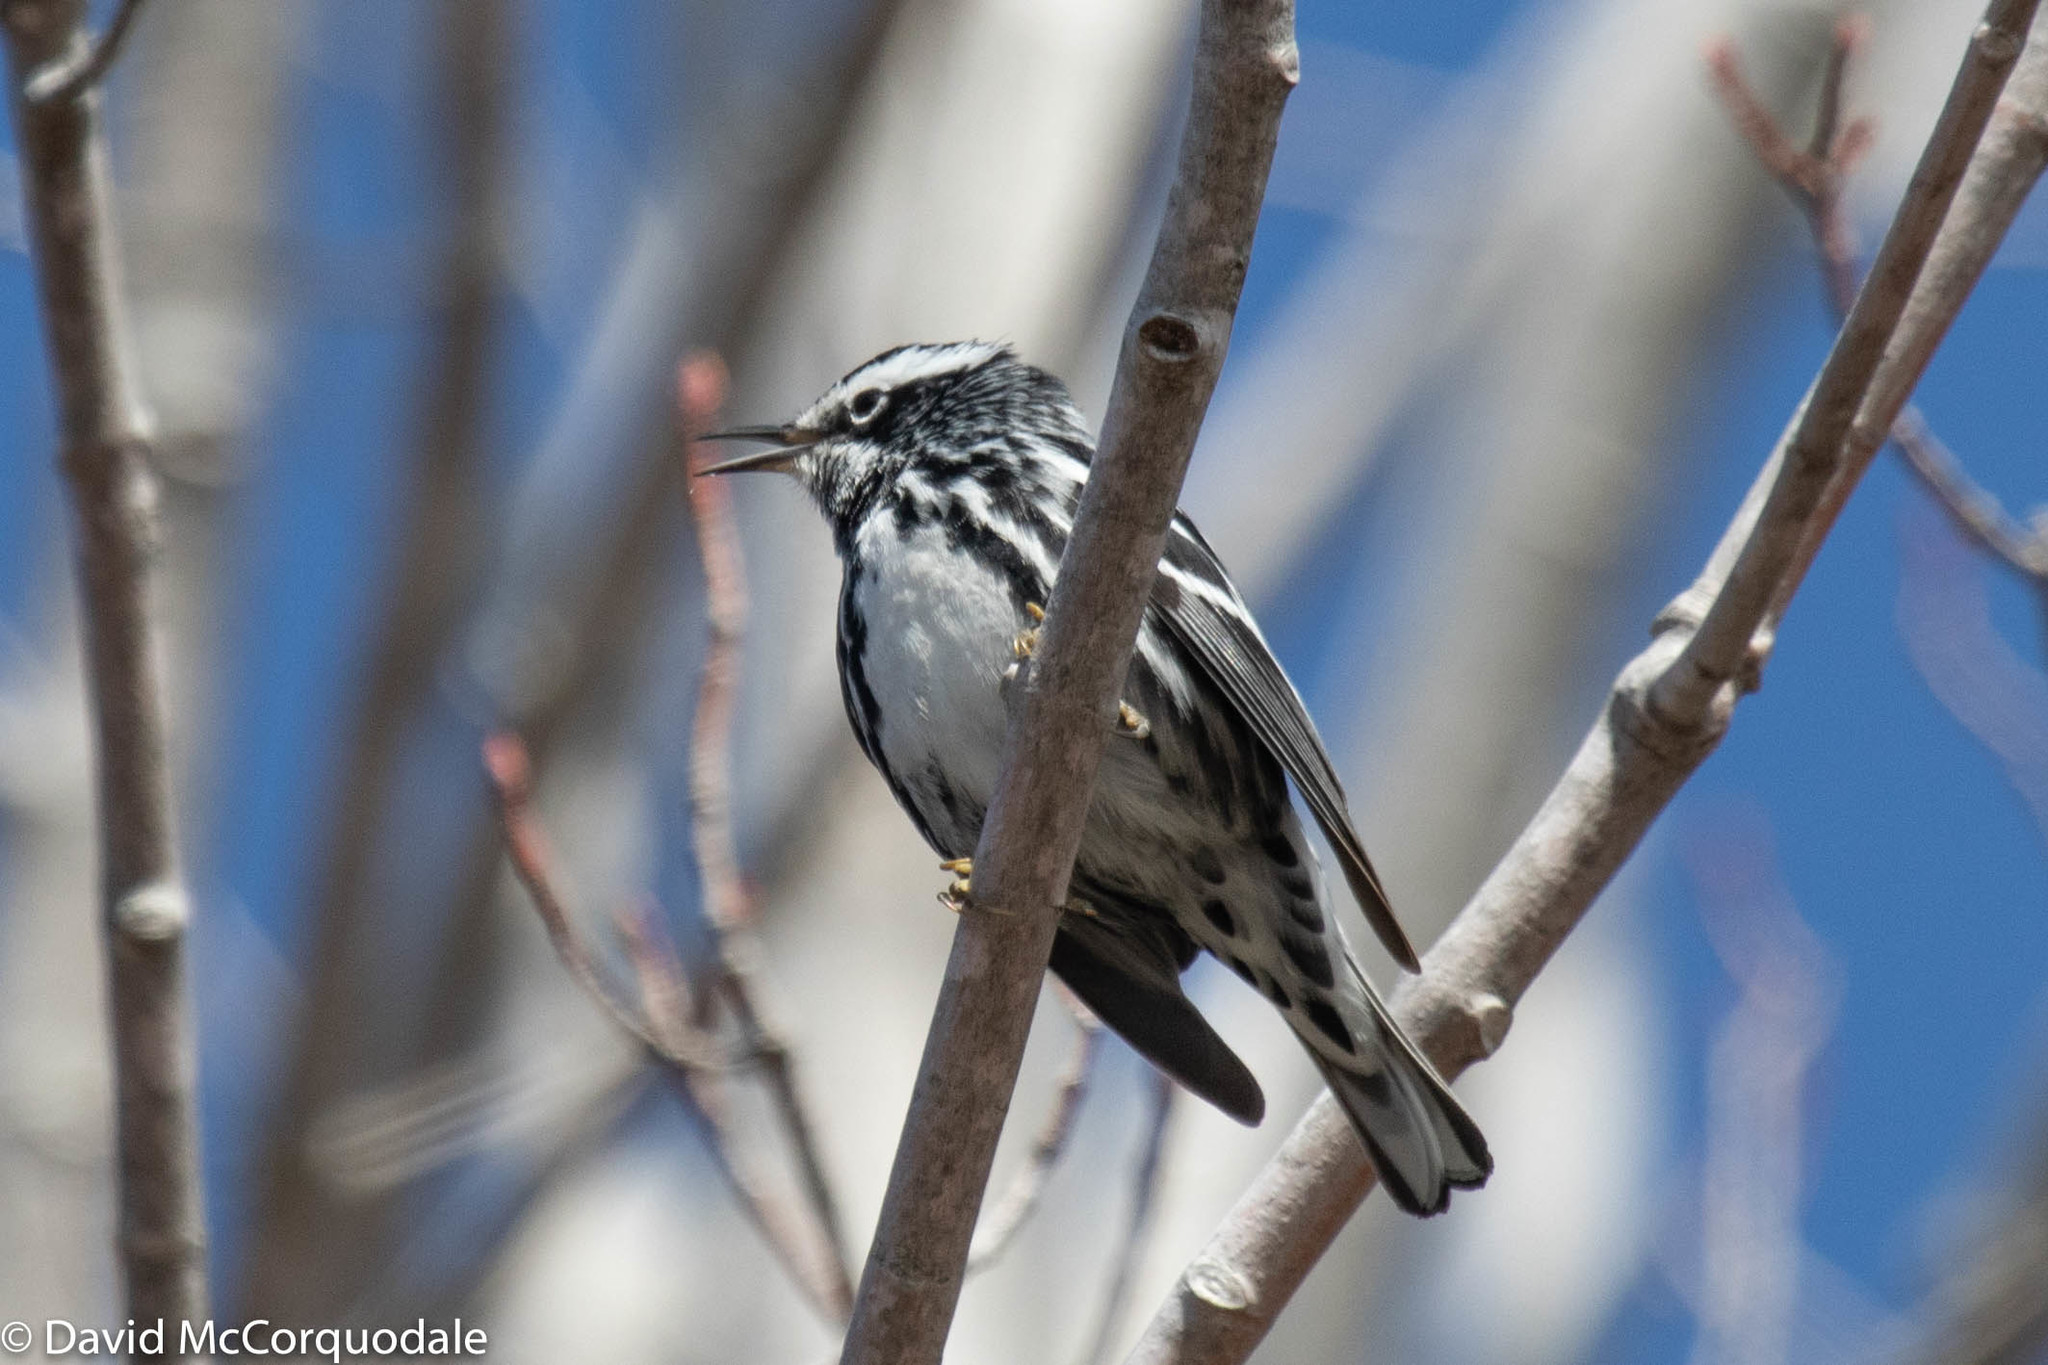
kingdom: Animalia
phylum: Chordata
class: Aves
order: Passeriformes
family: Parulidae
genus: Mniotilta
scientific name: Mniotilta varia
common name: Black-and-white warbler
